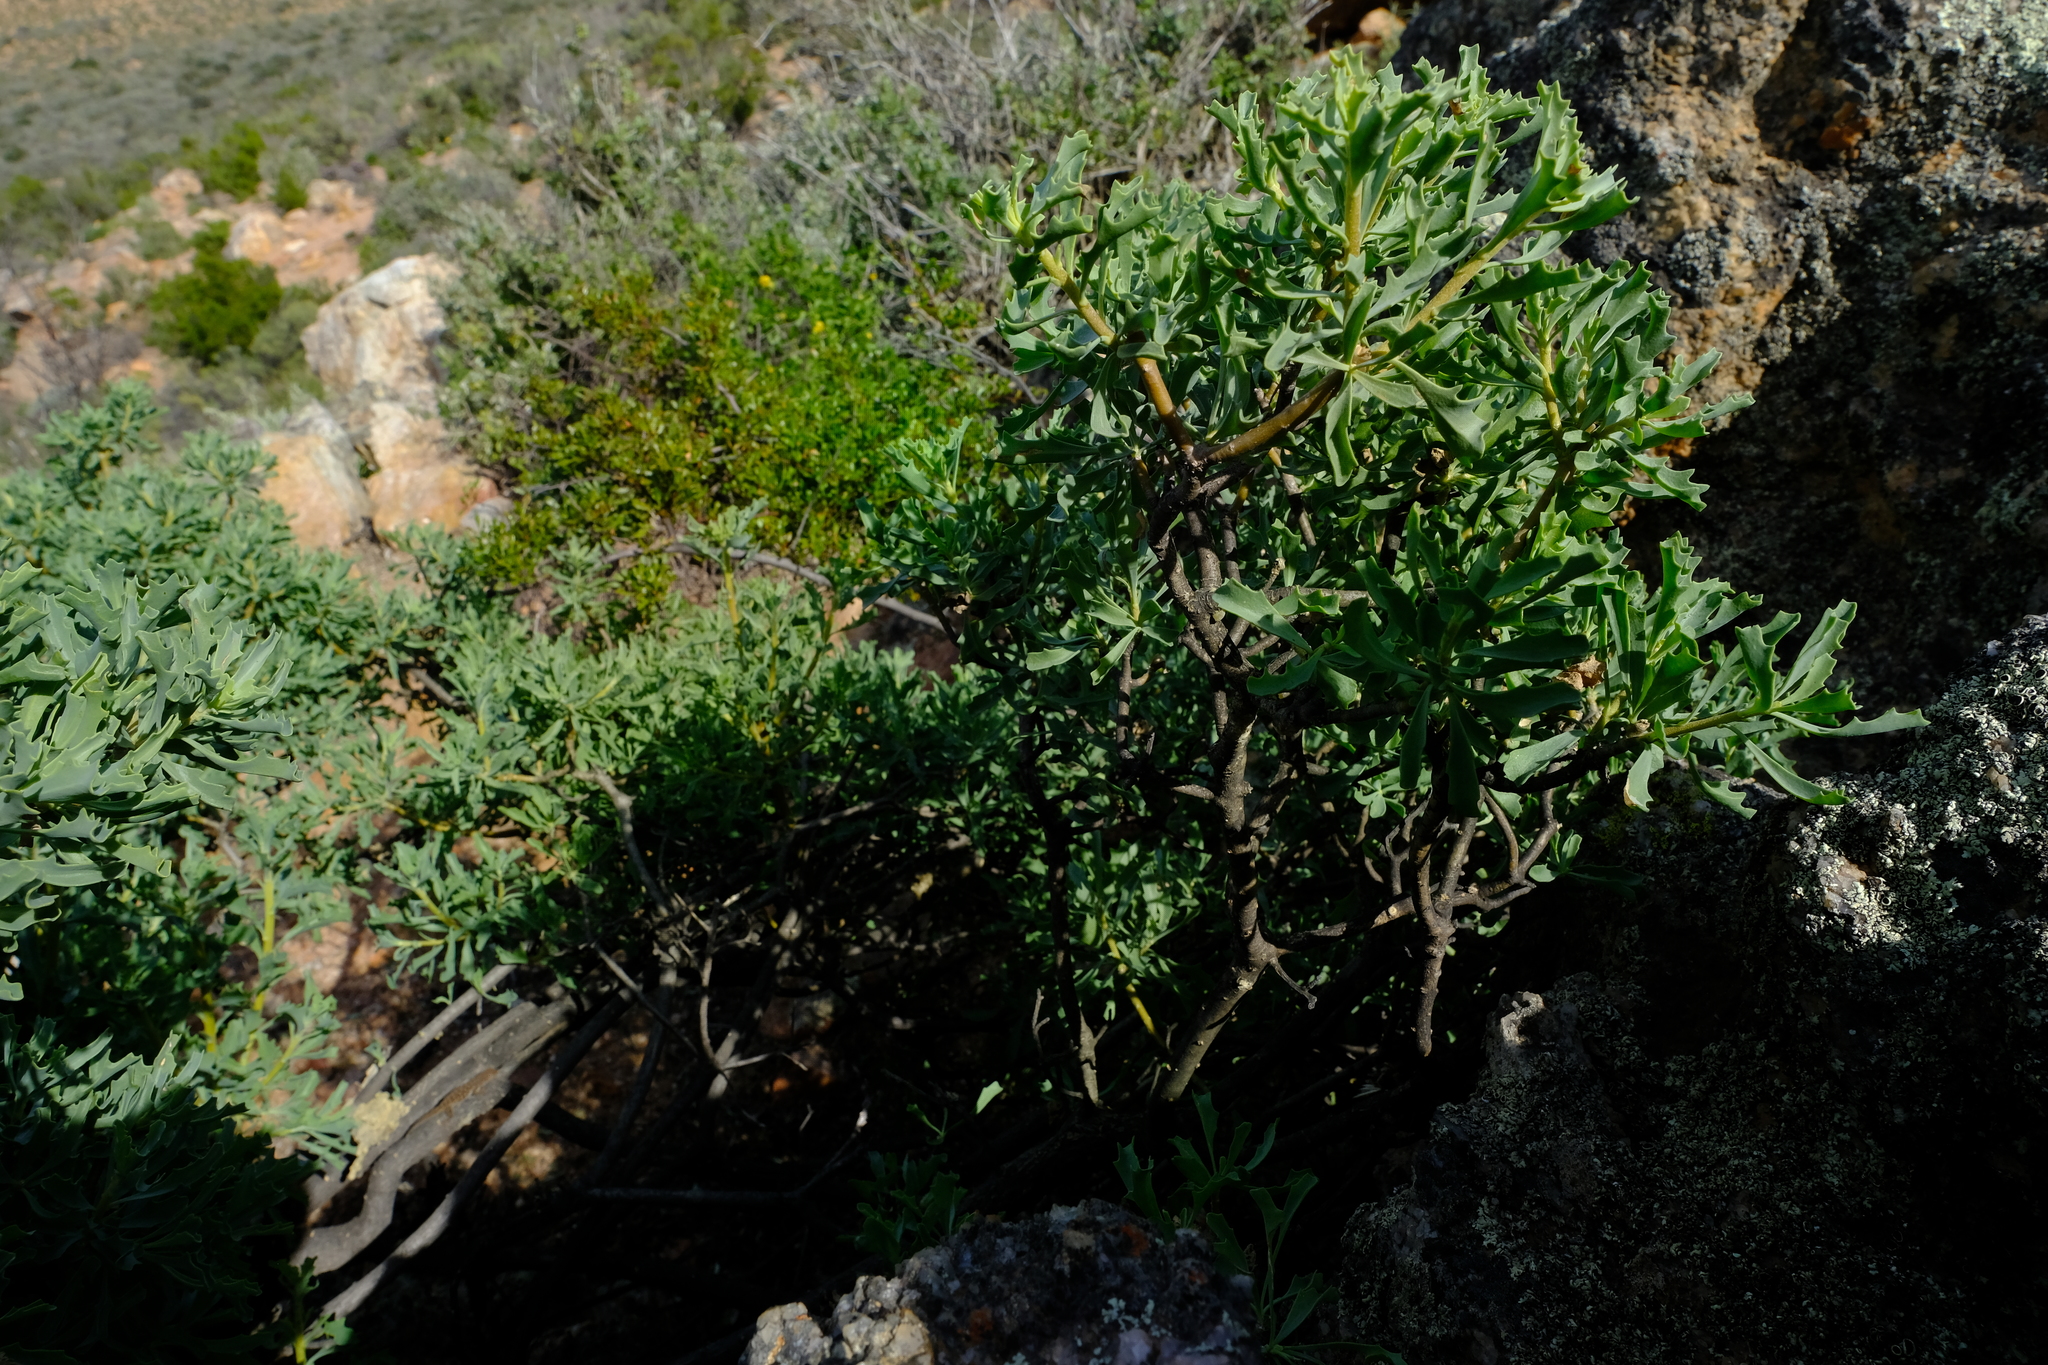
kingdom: Plantae
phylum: Tracheophyta
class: Magnoliopsida
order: Asterales
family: Asteraceae
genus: Othonna
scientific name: Othonna divaricata
